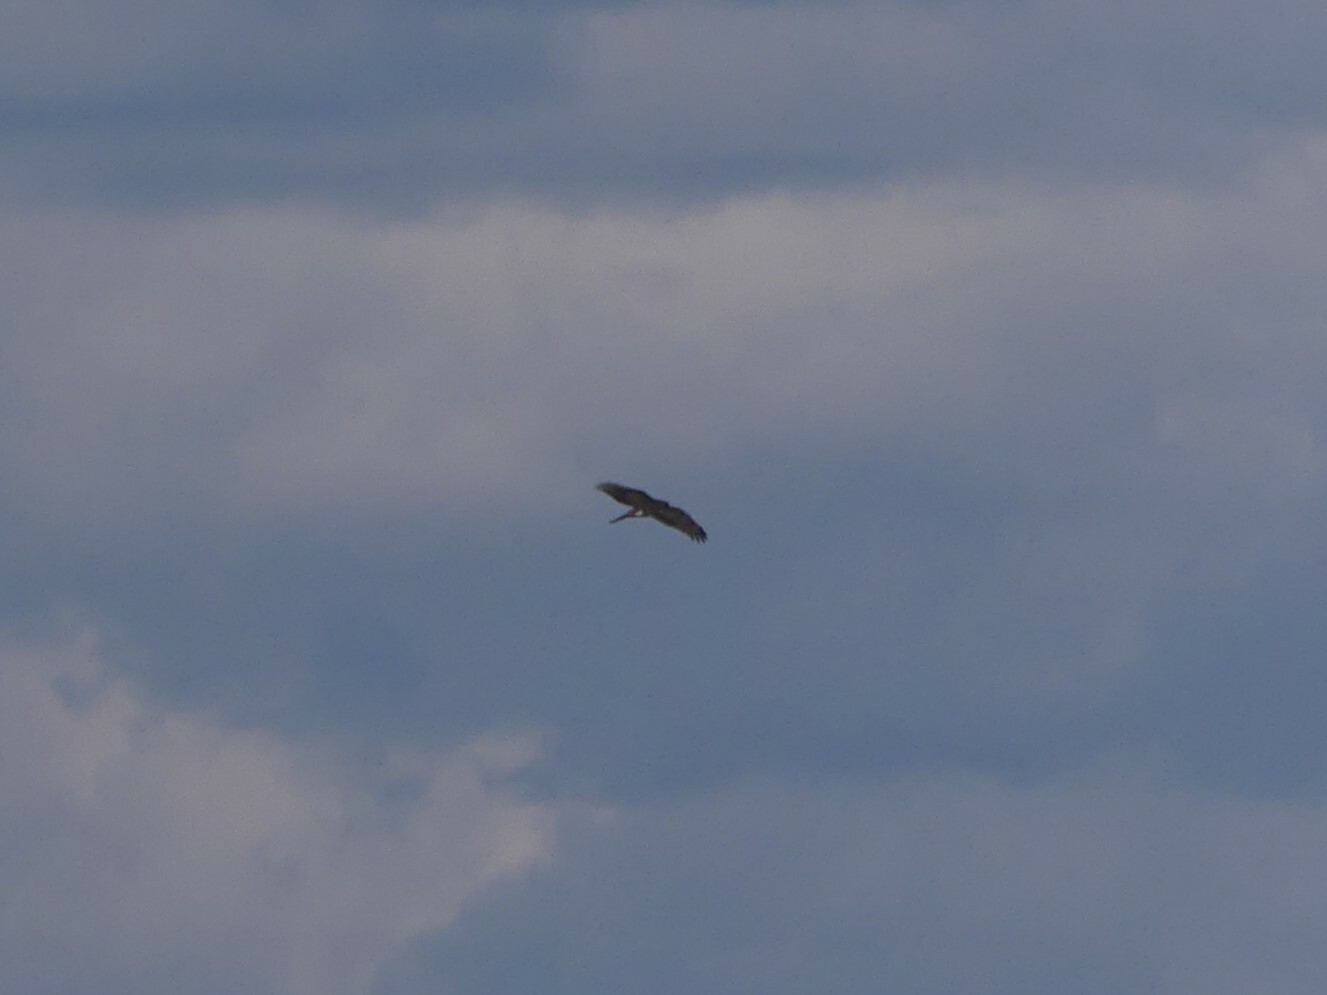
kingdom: Animalia
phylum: Chordata
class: Aves
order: Accipitriformes
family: Accipitridae
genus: Accipiter
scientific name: Accipiter cooperii
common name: Cooper's hawk
